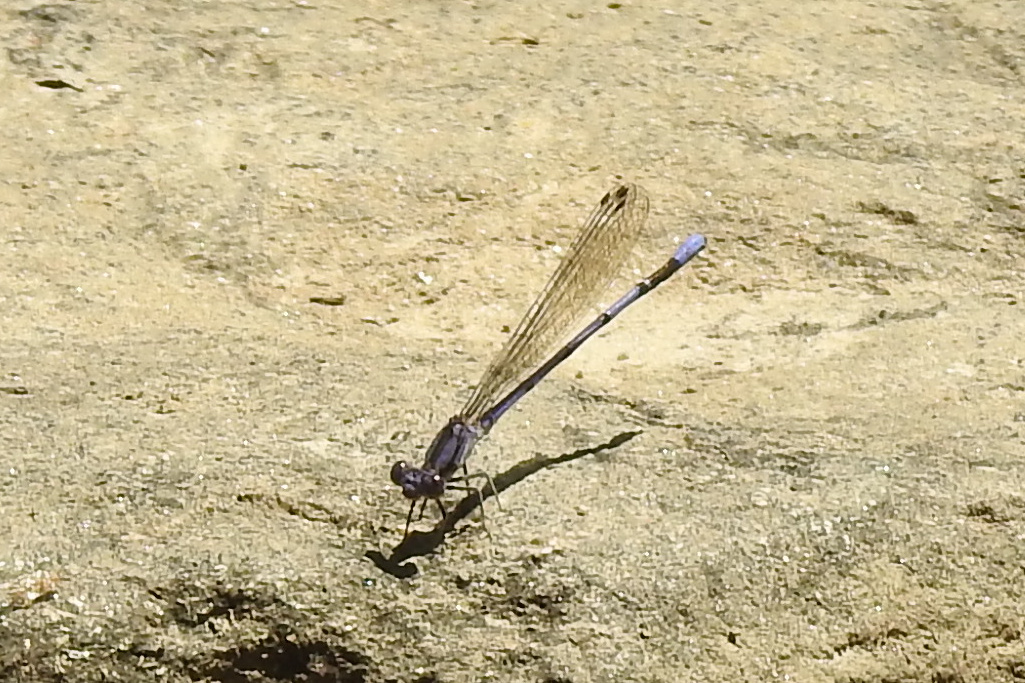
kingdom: Animalia
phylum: Arthropoda
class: Insecta
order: Odonata
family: Coenagrionidae
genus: Argia
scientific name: Argia fumipennis
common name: Variable dancer
